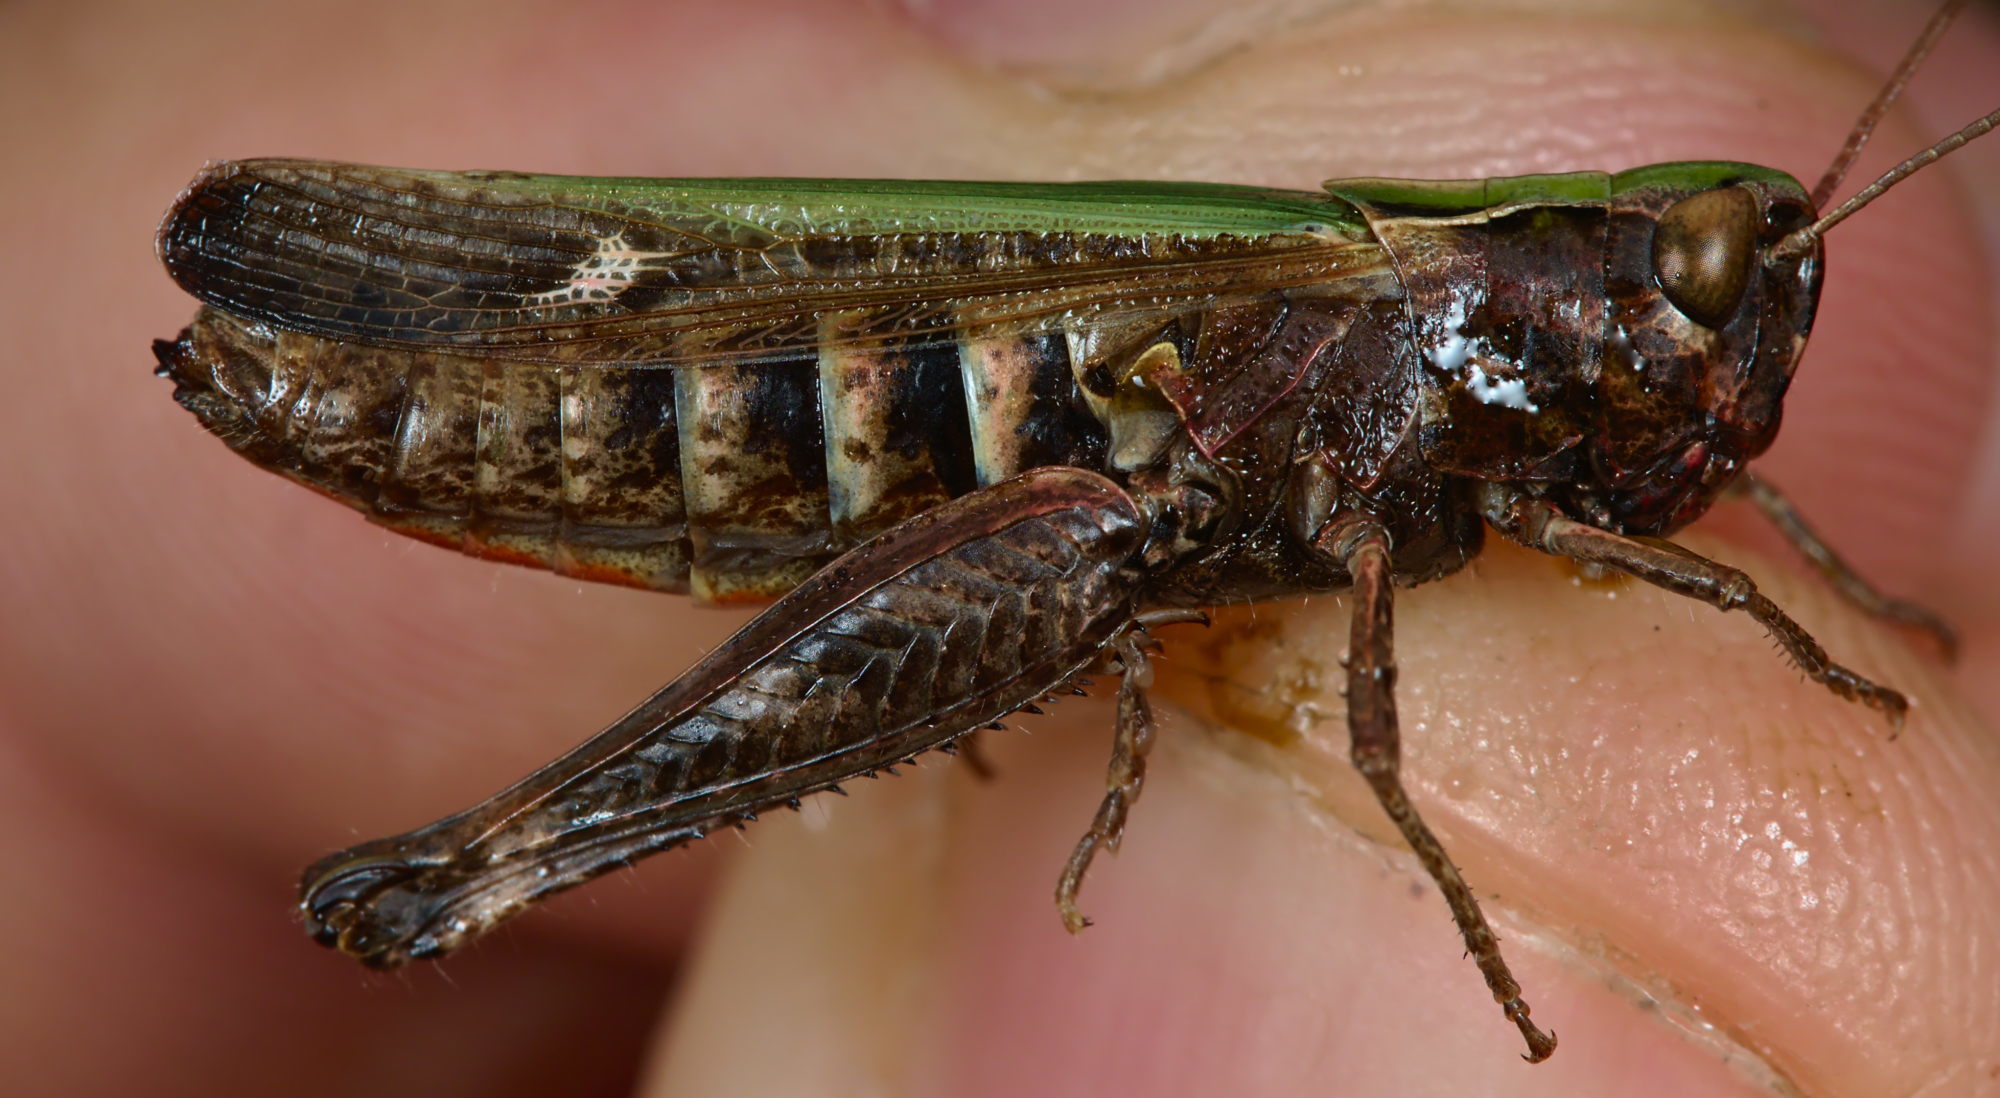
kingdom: Animalia
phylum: Arthropoda
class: Insecta
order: Orthoptera
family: Acrididae
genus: Omocestus
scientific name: Omocestus rufipes
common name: Woodland grasshopper
